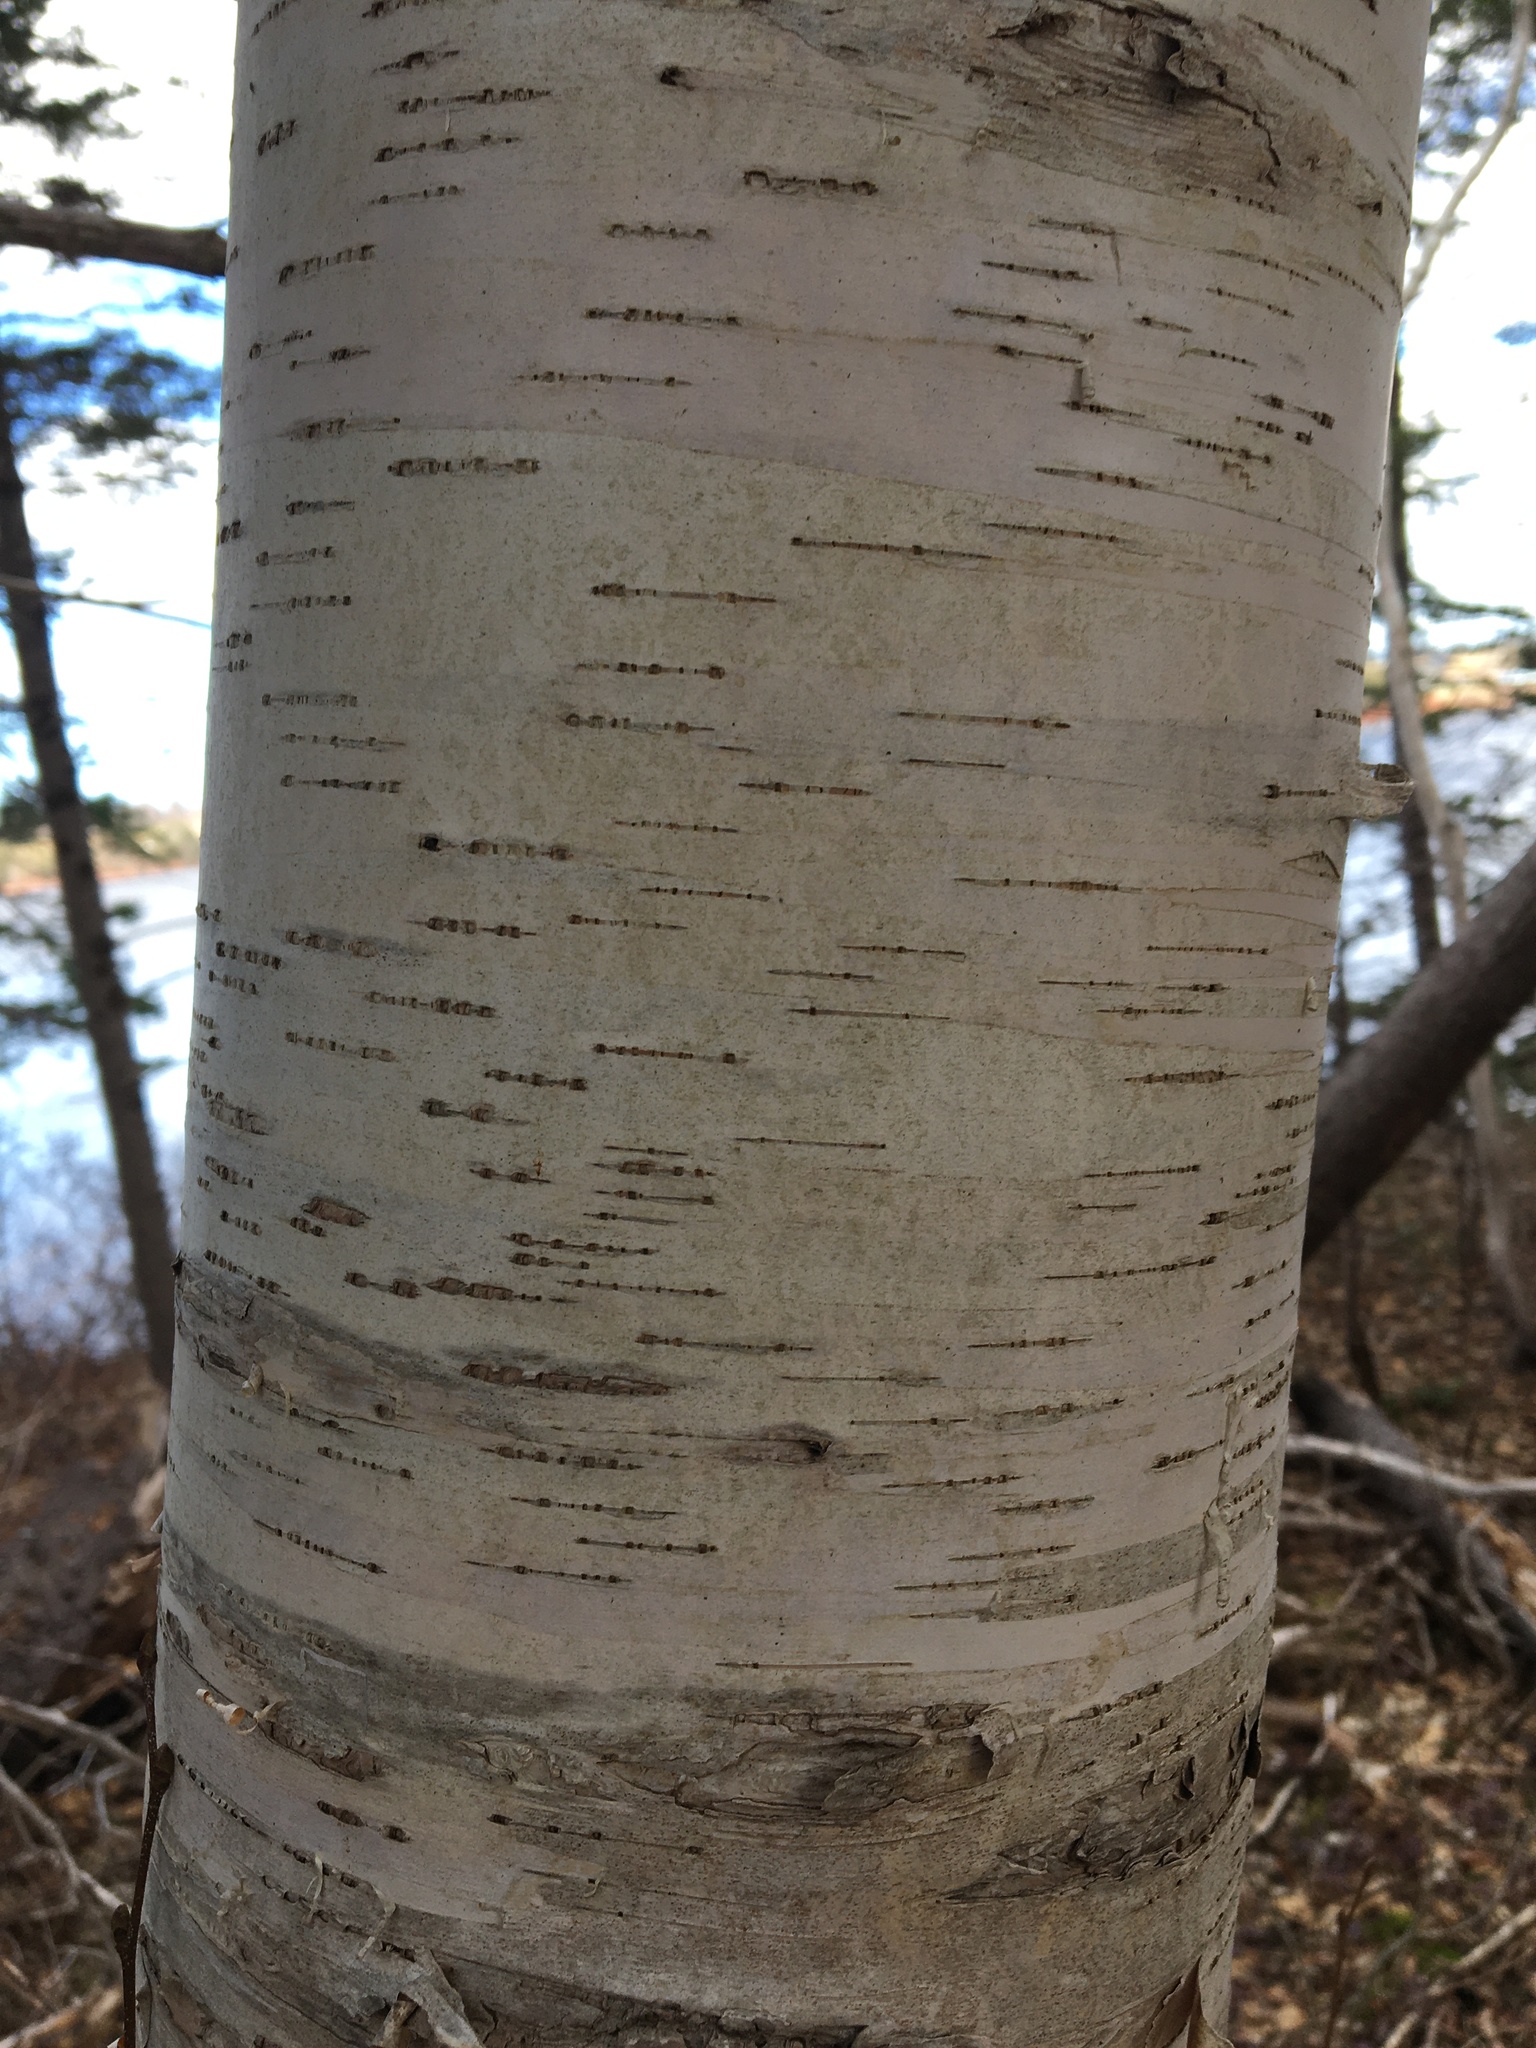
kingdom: Plantae
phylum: Tracheophyta
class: Magnoliopsida
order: Fagales
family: Betulaceae
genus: Betula
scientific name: Betula papyrifera
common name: Paper birch
